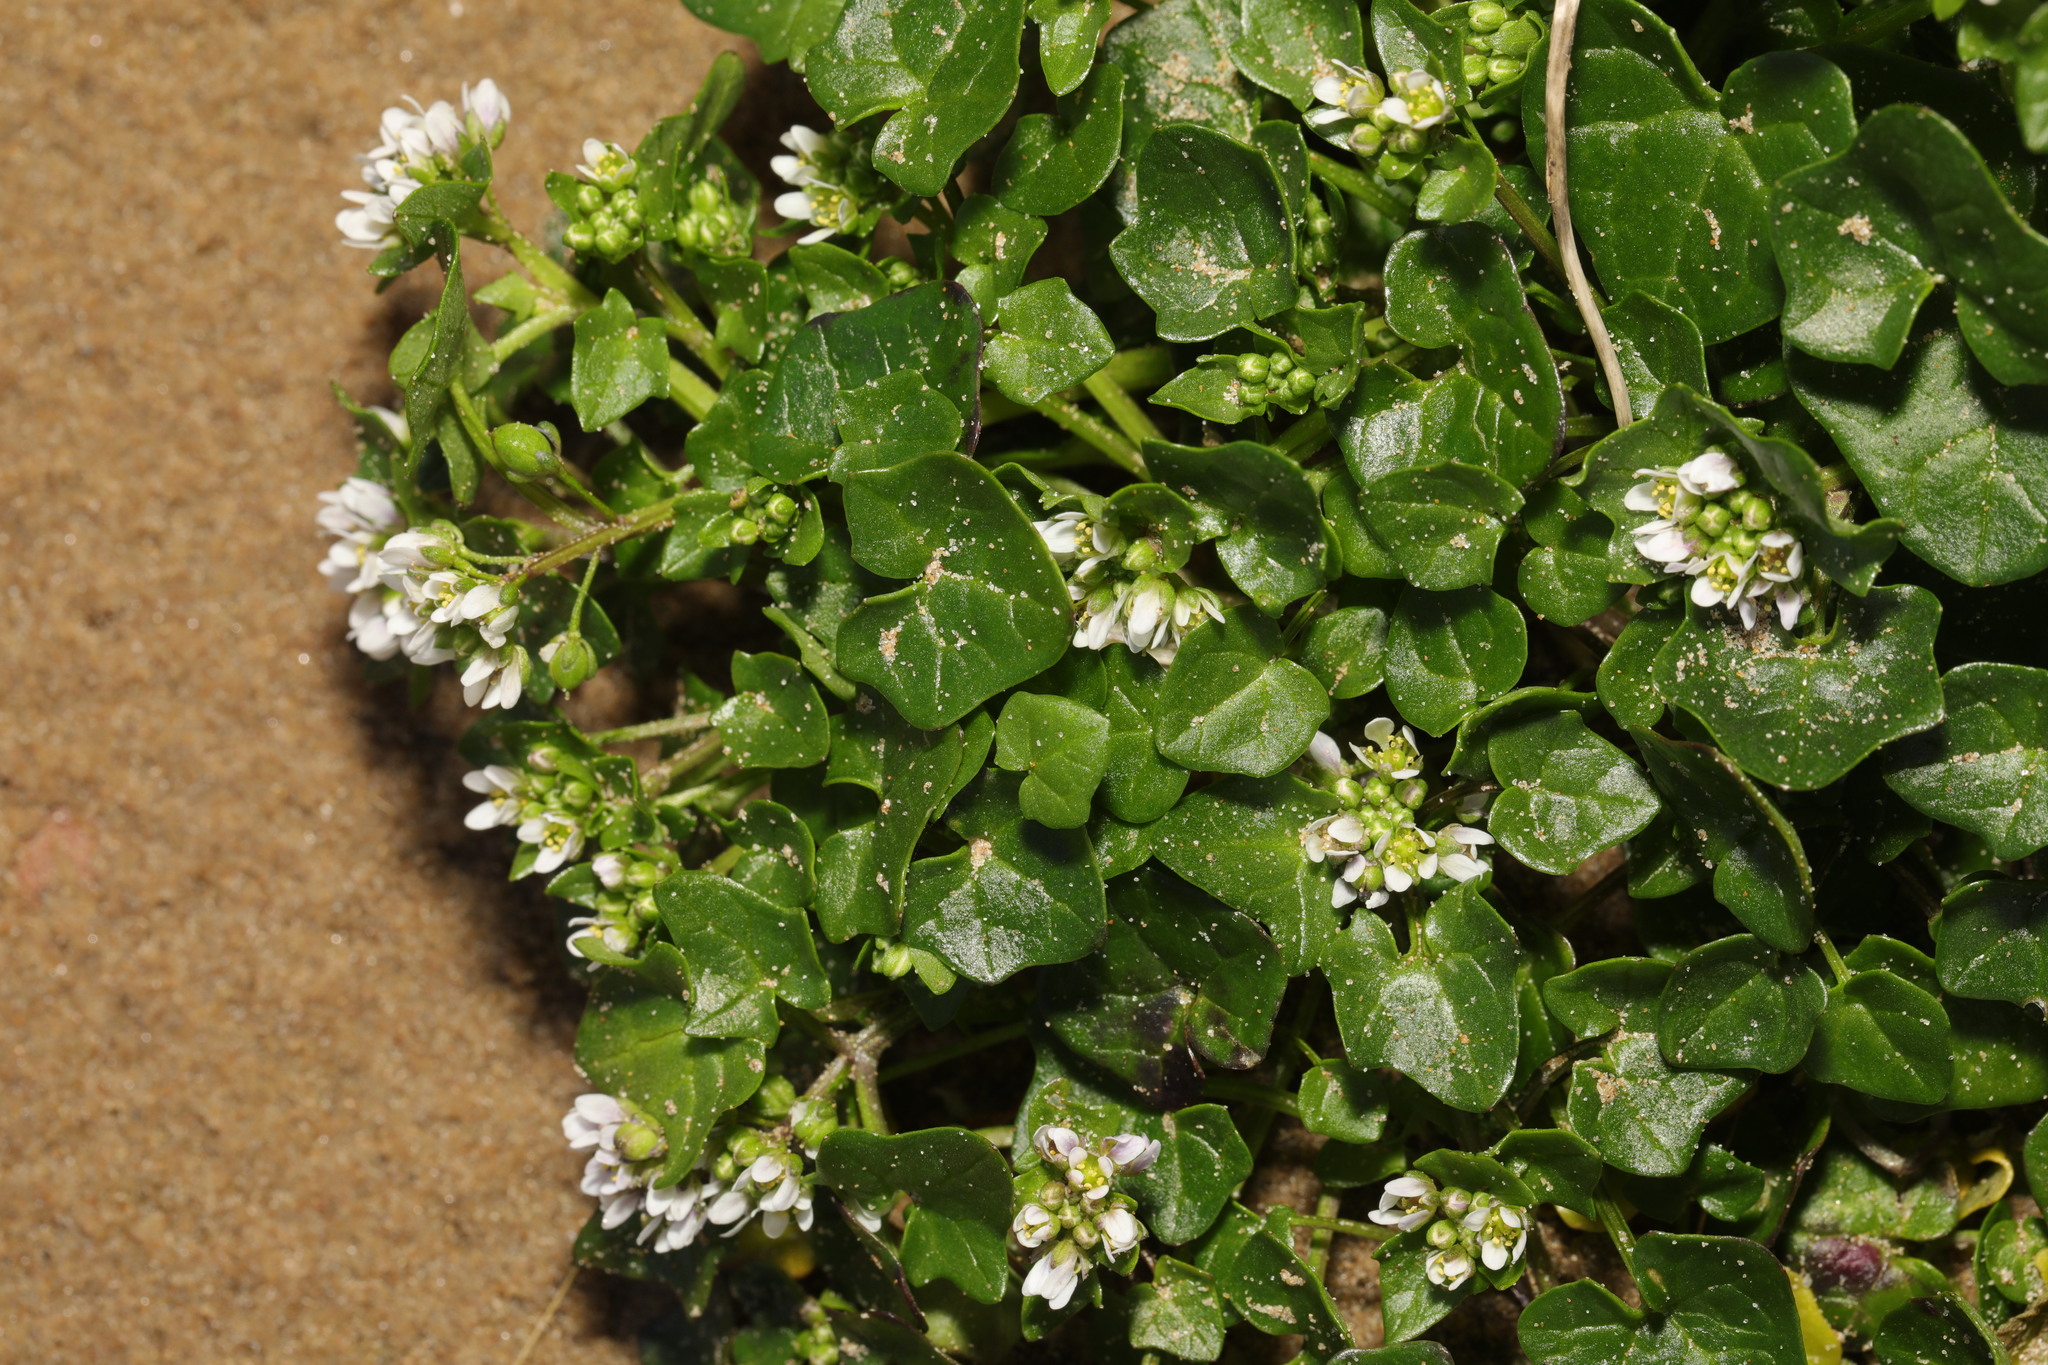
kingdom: Plantae
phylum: Tracheophyta
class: Magnoliopsida
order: Brassicales
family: Brassicaceae
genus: Cochlearia
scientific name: Cochlearia danica
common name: Early scurvygrass
